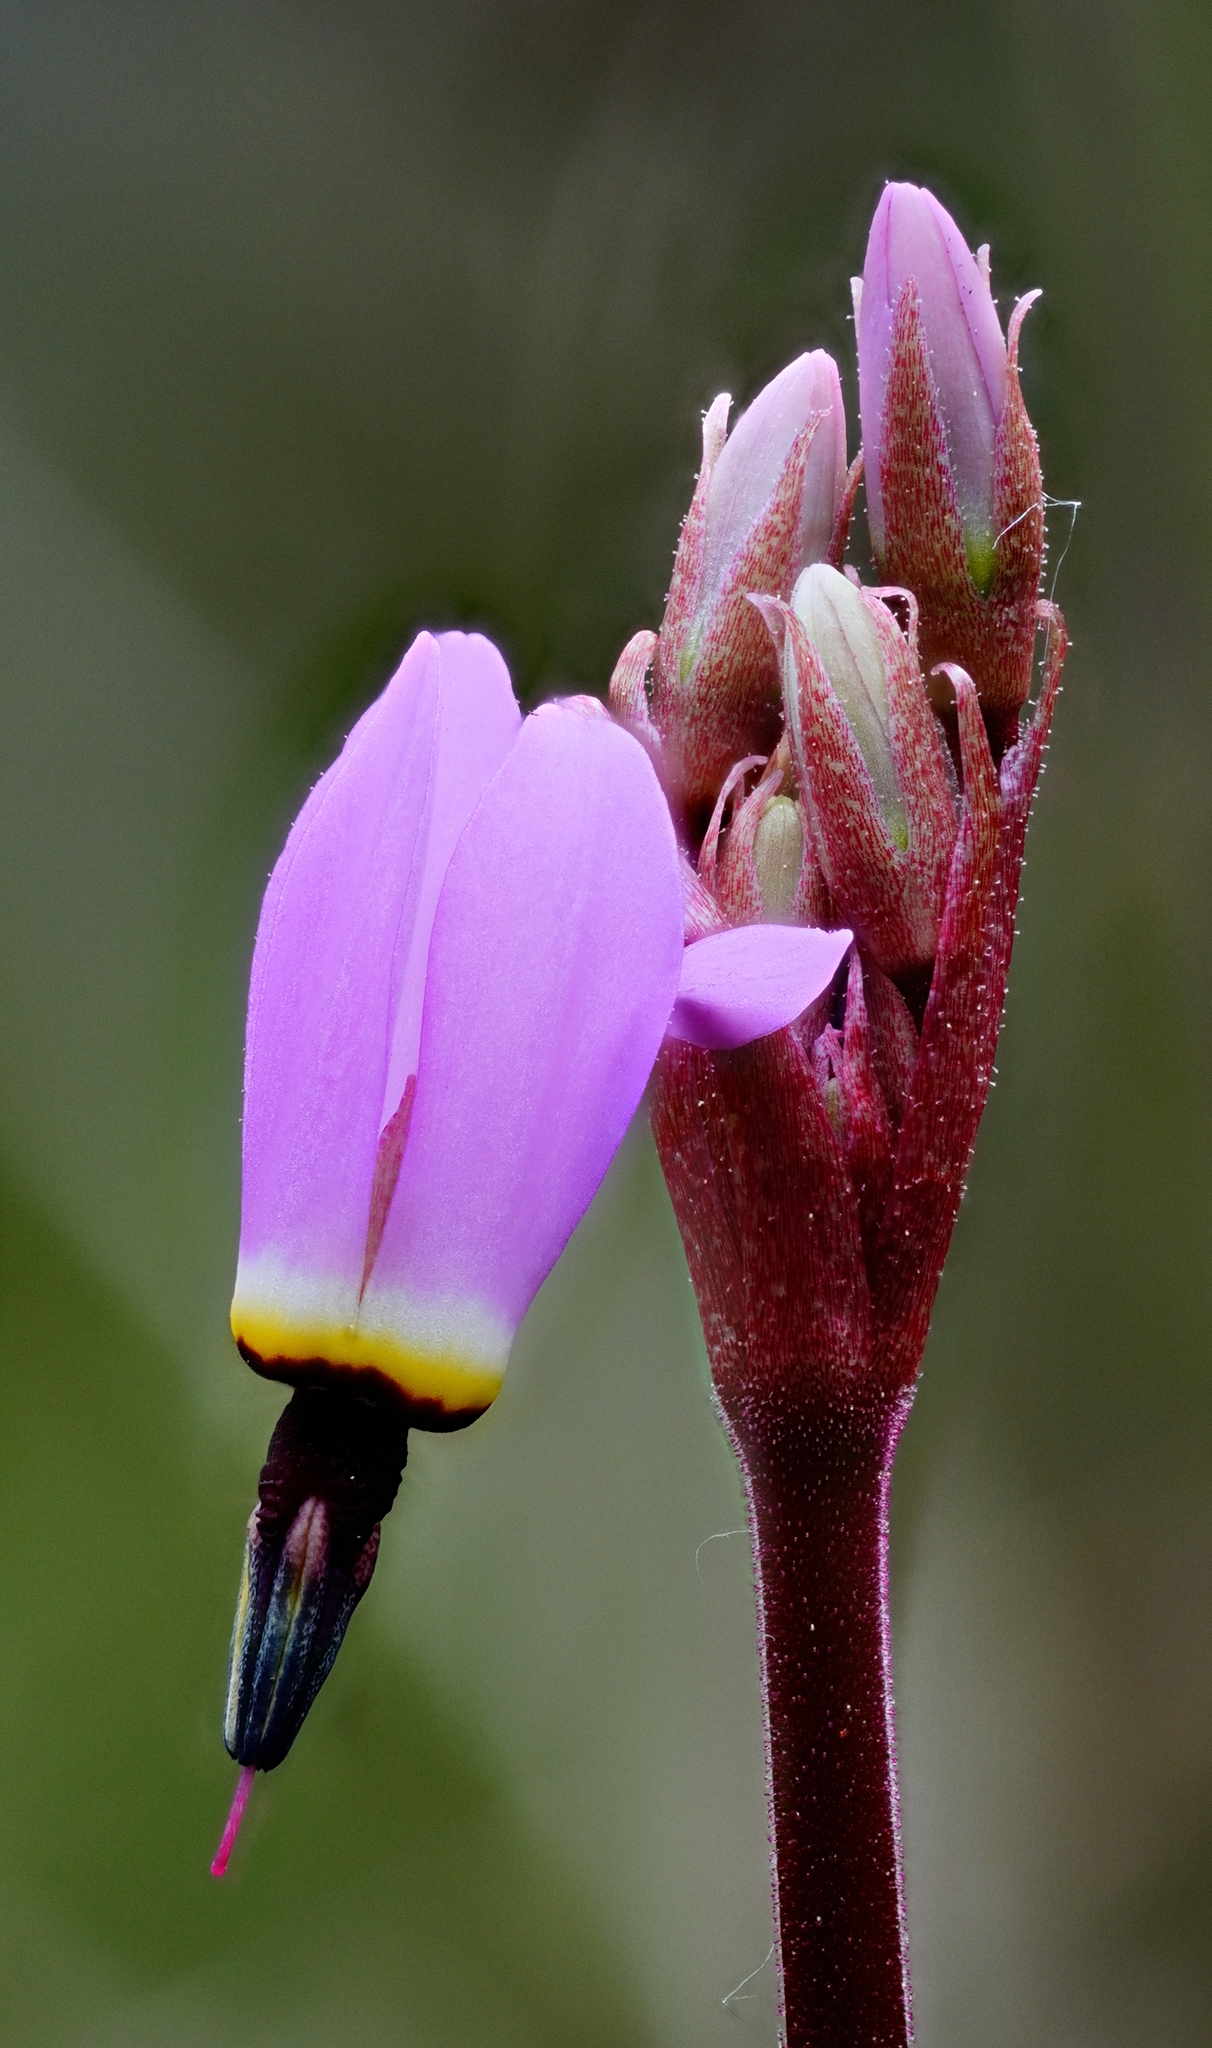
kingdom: Plantae
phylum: Tracheophyta
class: Magnoliopsida
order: Ericales
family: Primulaceae
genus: Dodecatheon
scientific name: Dodecatheon hendersonii
